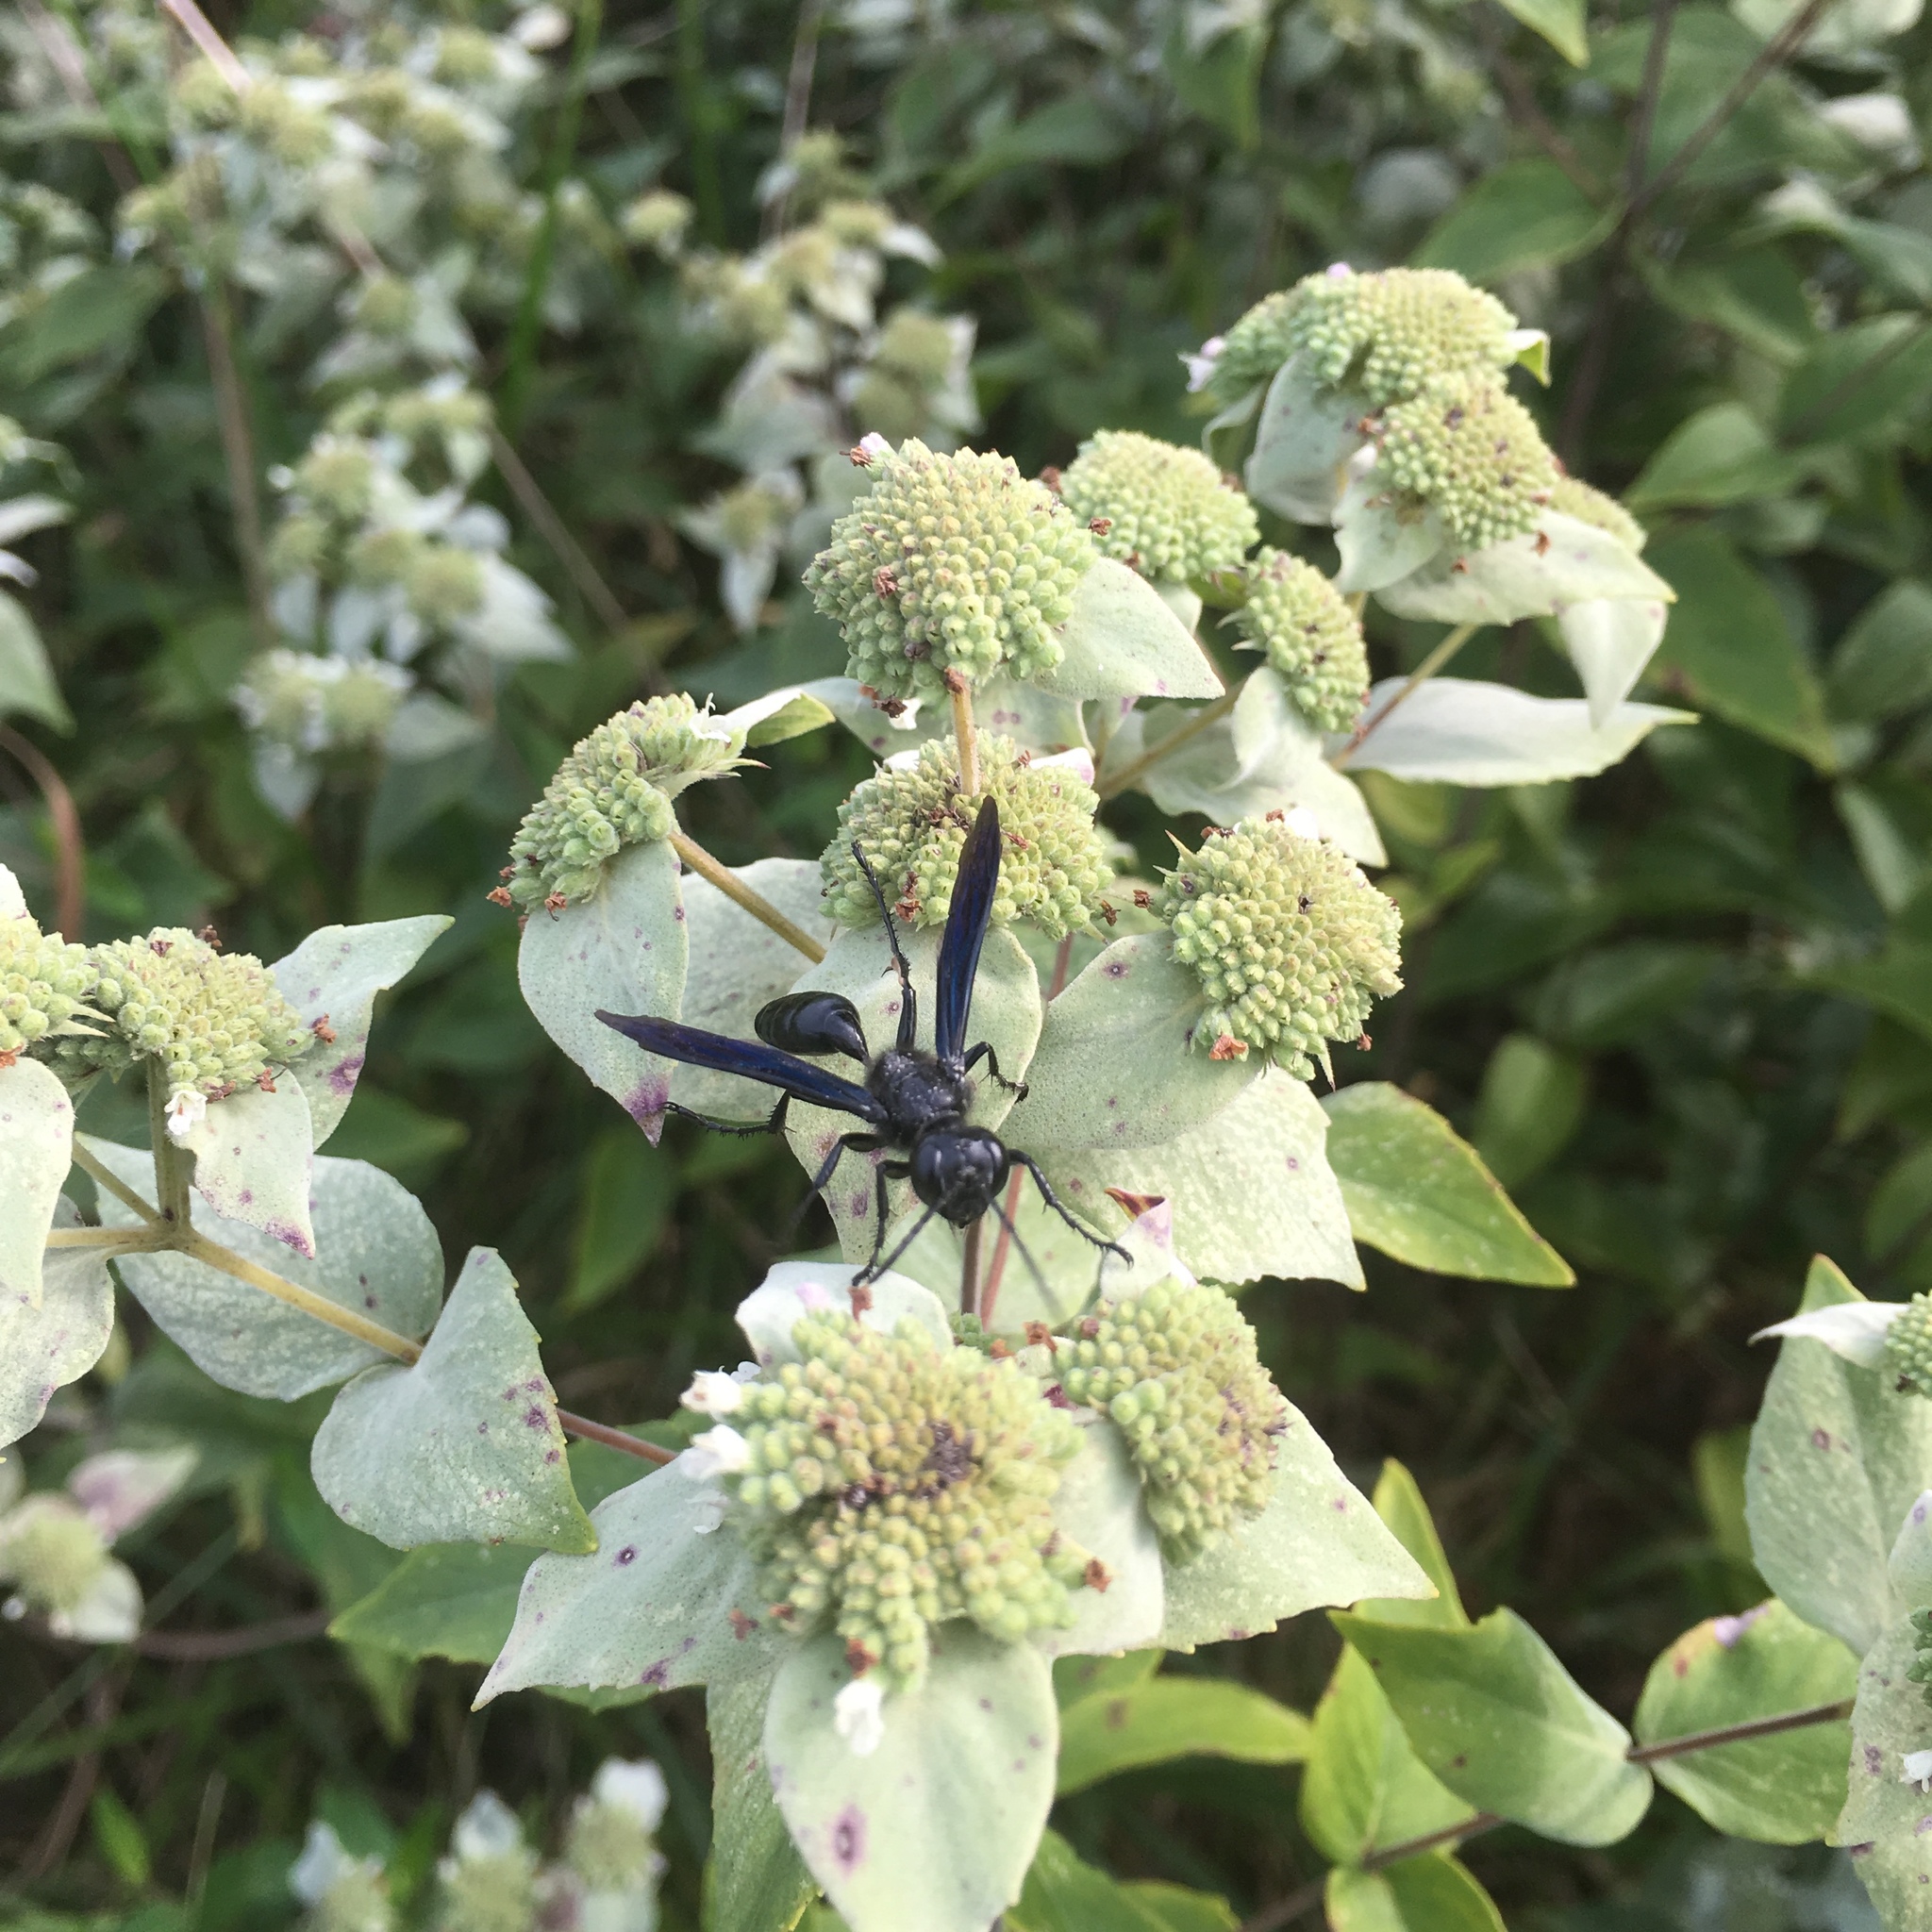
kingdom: Animalia
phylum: Arthropoda
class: Insecta
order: Hymenoptera
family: Sphecidae
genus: Isodontia
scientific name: Isodontia philadelphica
